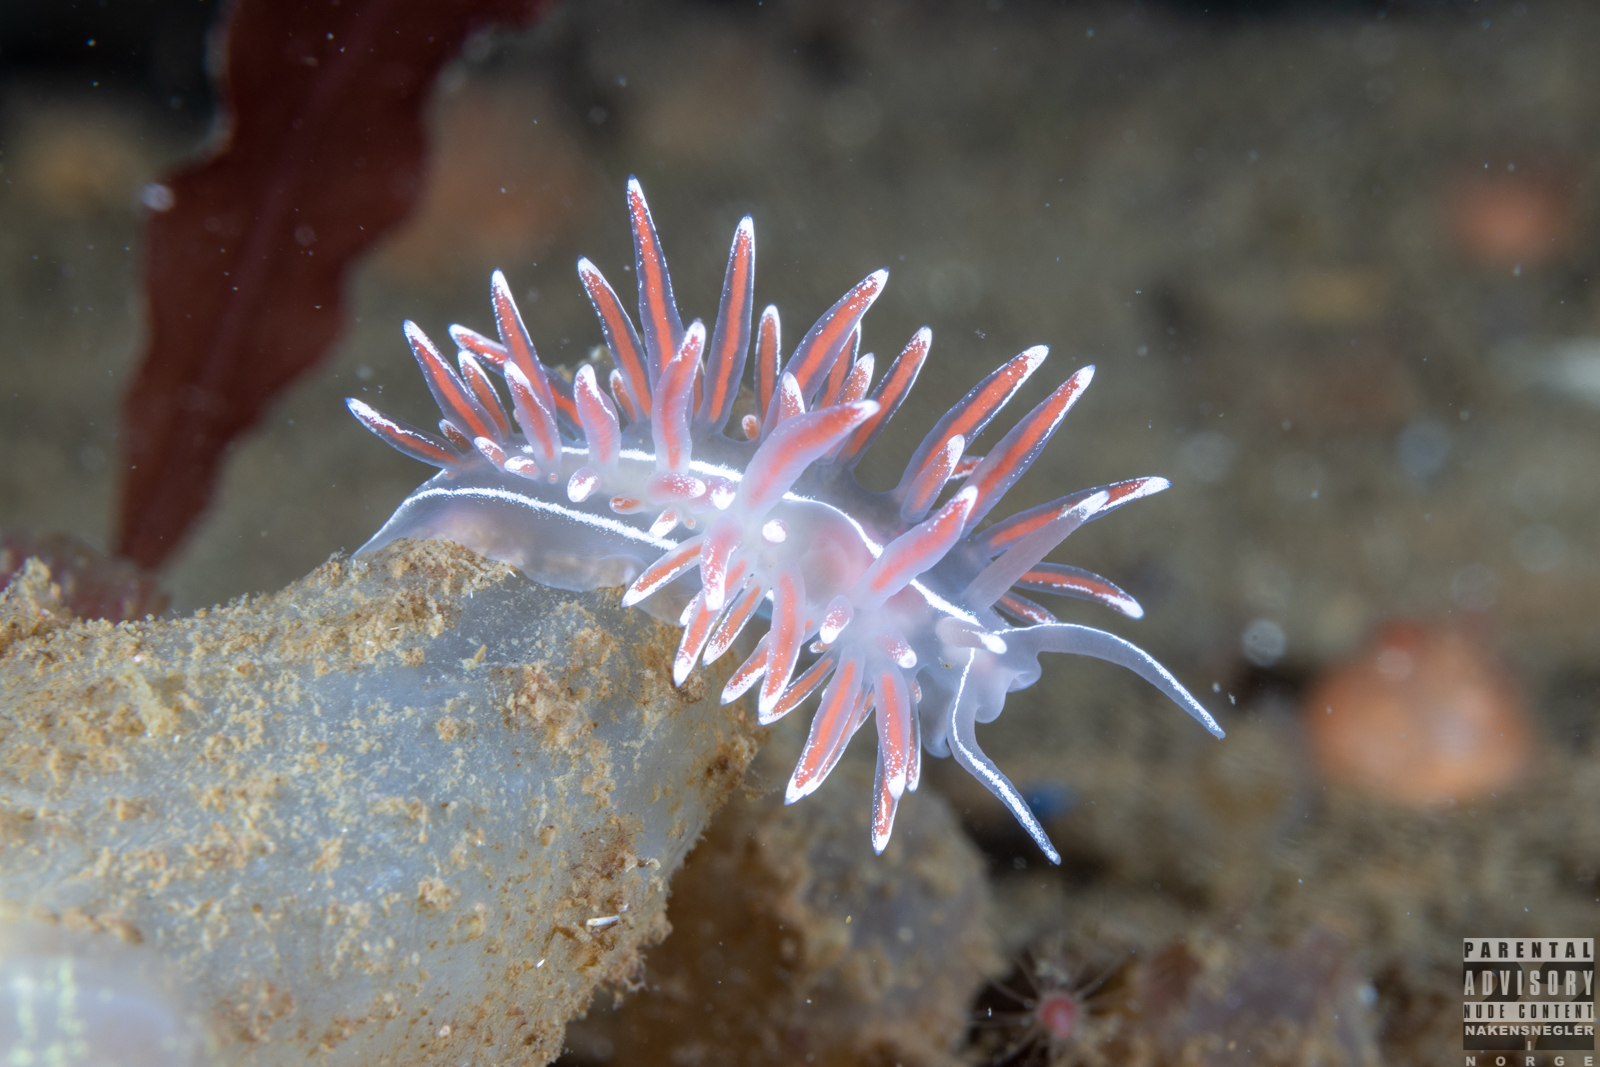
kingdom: Animalia
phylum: Mollusca
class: Gastropoda
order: Nudibranchia
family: Coryphellidae
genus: Coryphella
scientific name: Coryphella lineata
